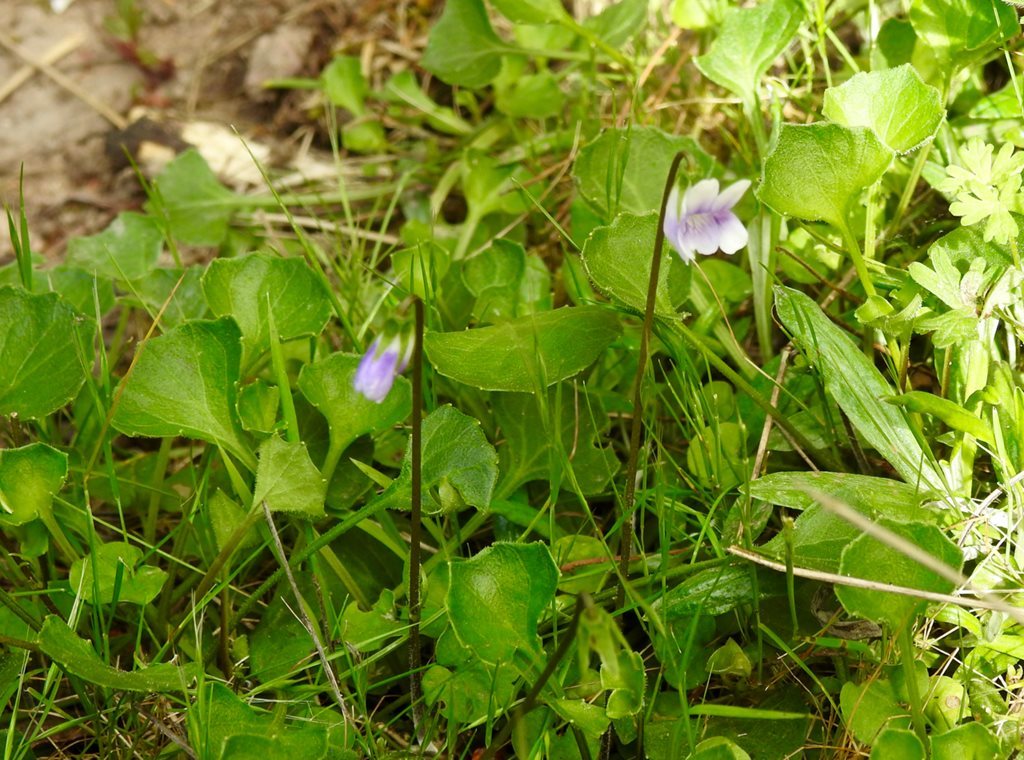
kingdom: Plantae
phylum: Tracheophyta
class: Magnoliopsida
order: Malpighiales
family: Violaceae
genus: Viola
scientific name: Viola hederacea
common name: Australian violet
